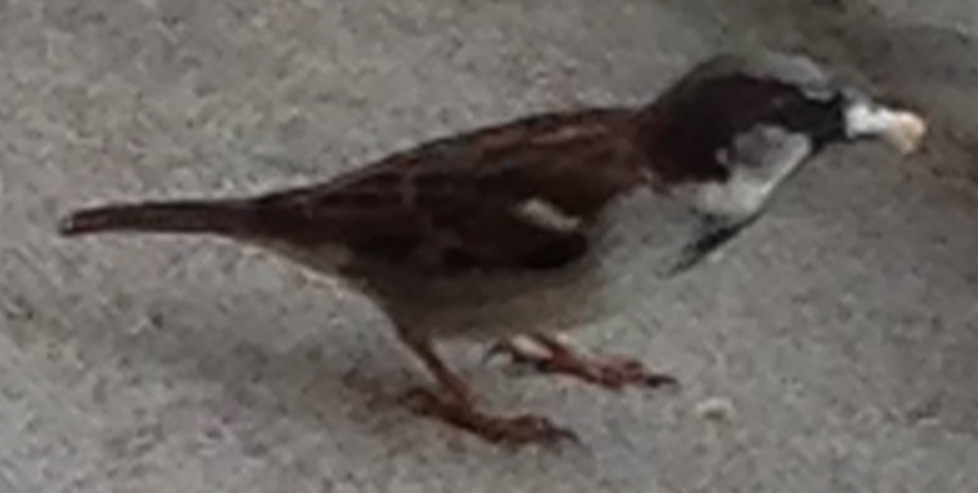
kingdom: Animalia
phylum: Chordata
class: Aves
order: Passeriformes
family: Passeridae
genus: Passer
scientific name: Passer domesticus
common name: House sparrow
